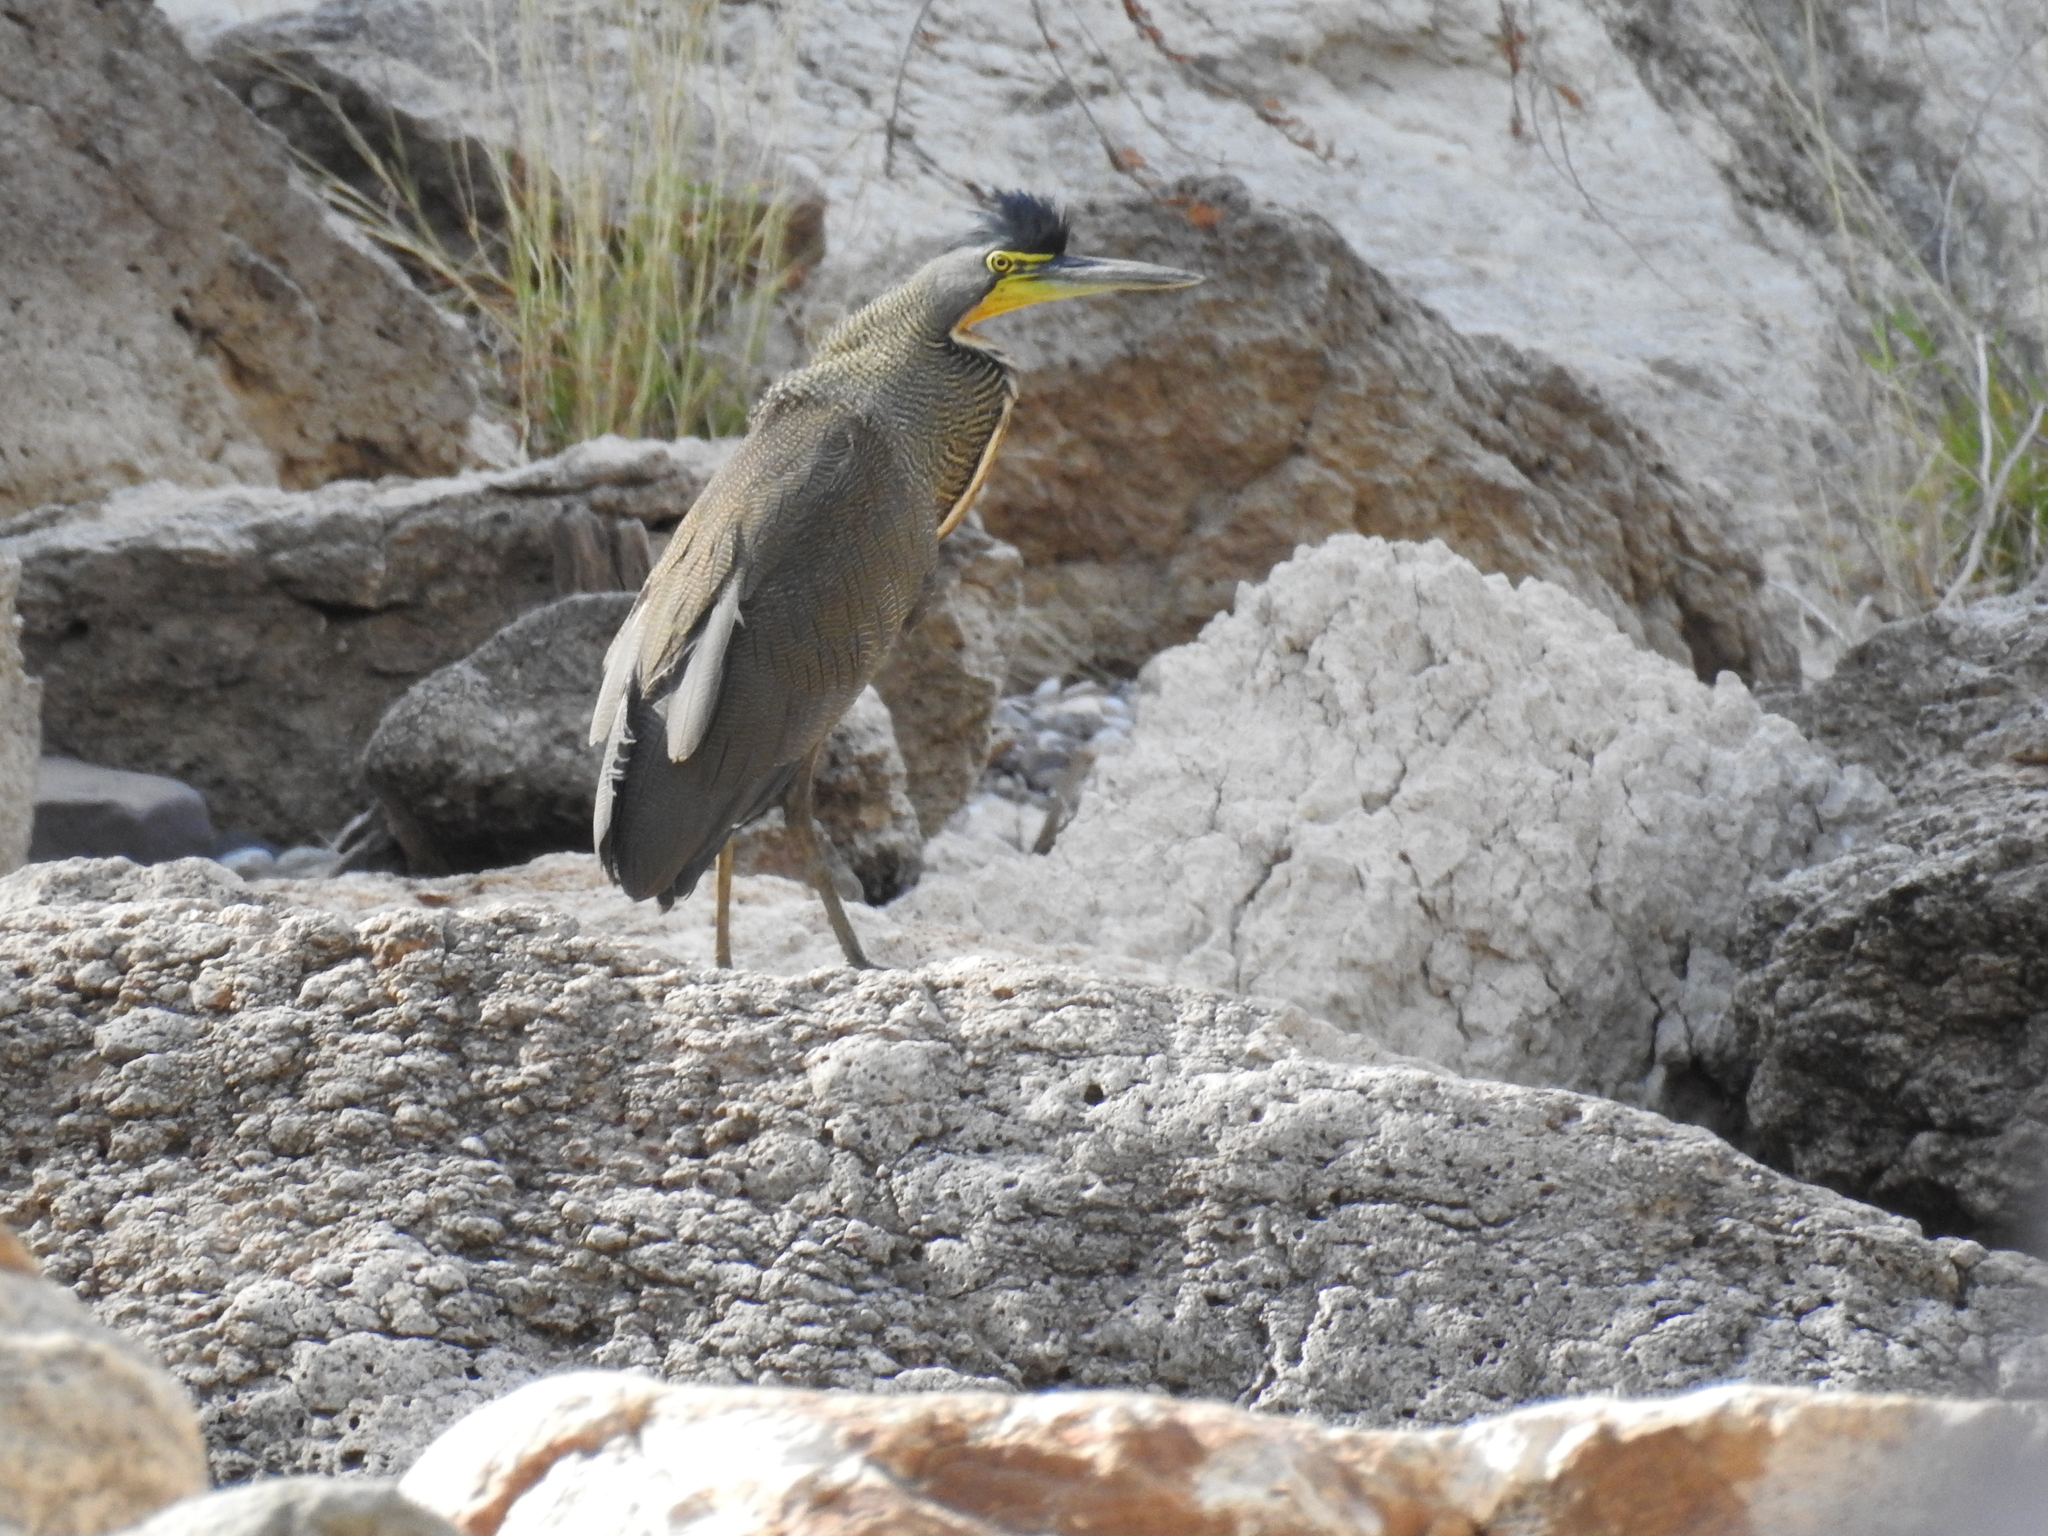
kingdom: Animalia
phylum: Chordata
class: Aves
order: Pelecaniformes
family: Ardeidae
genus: Tigrisoma
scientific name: Tigrisoma mexicanum
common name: Bare-throated tiger-heron
